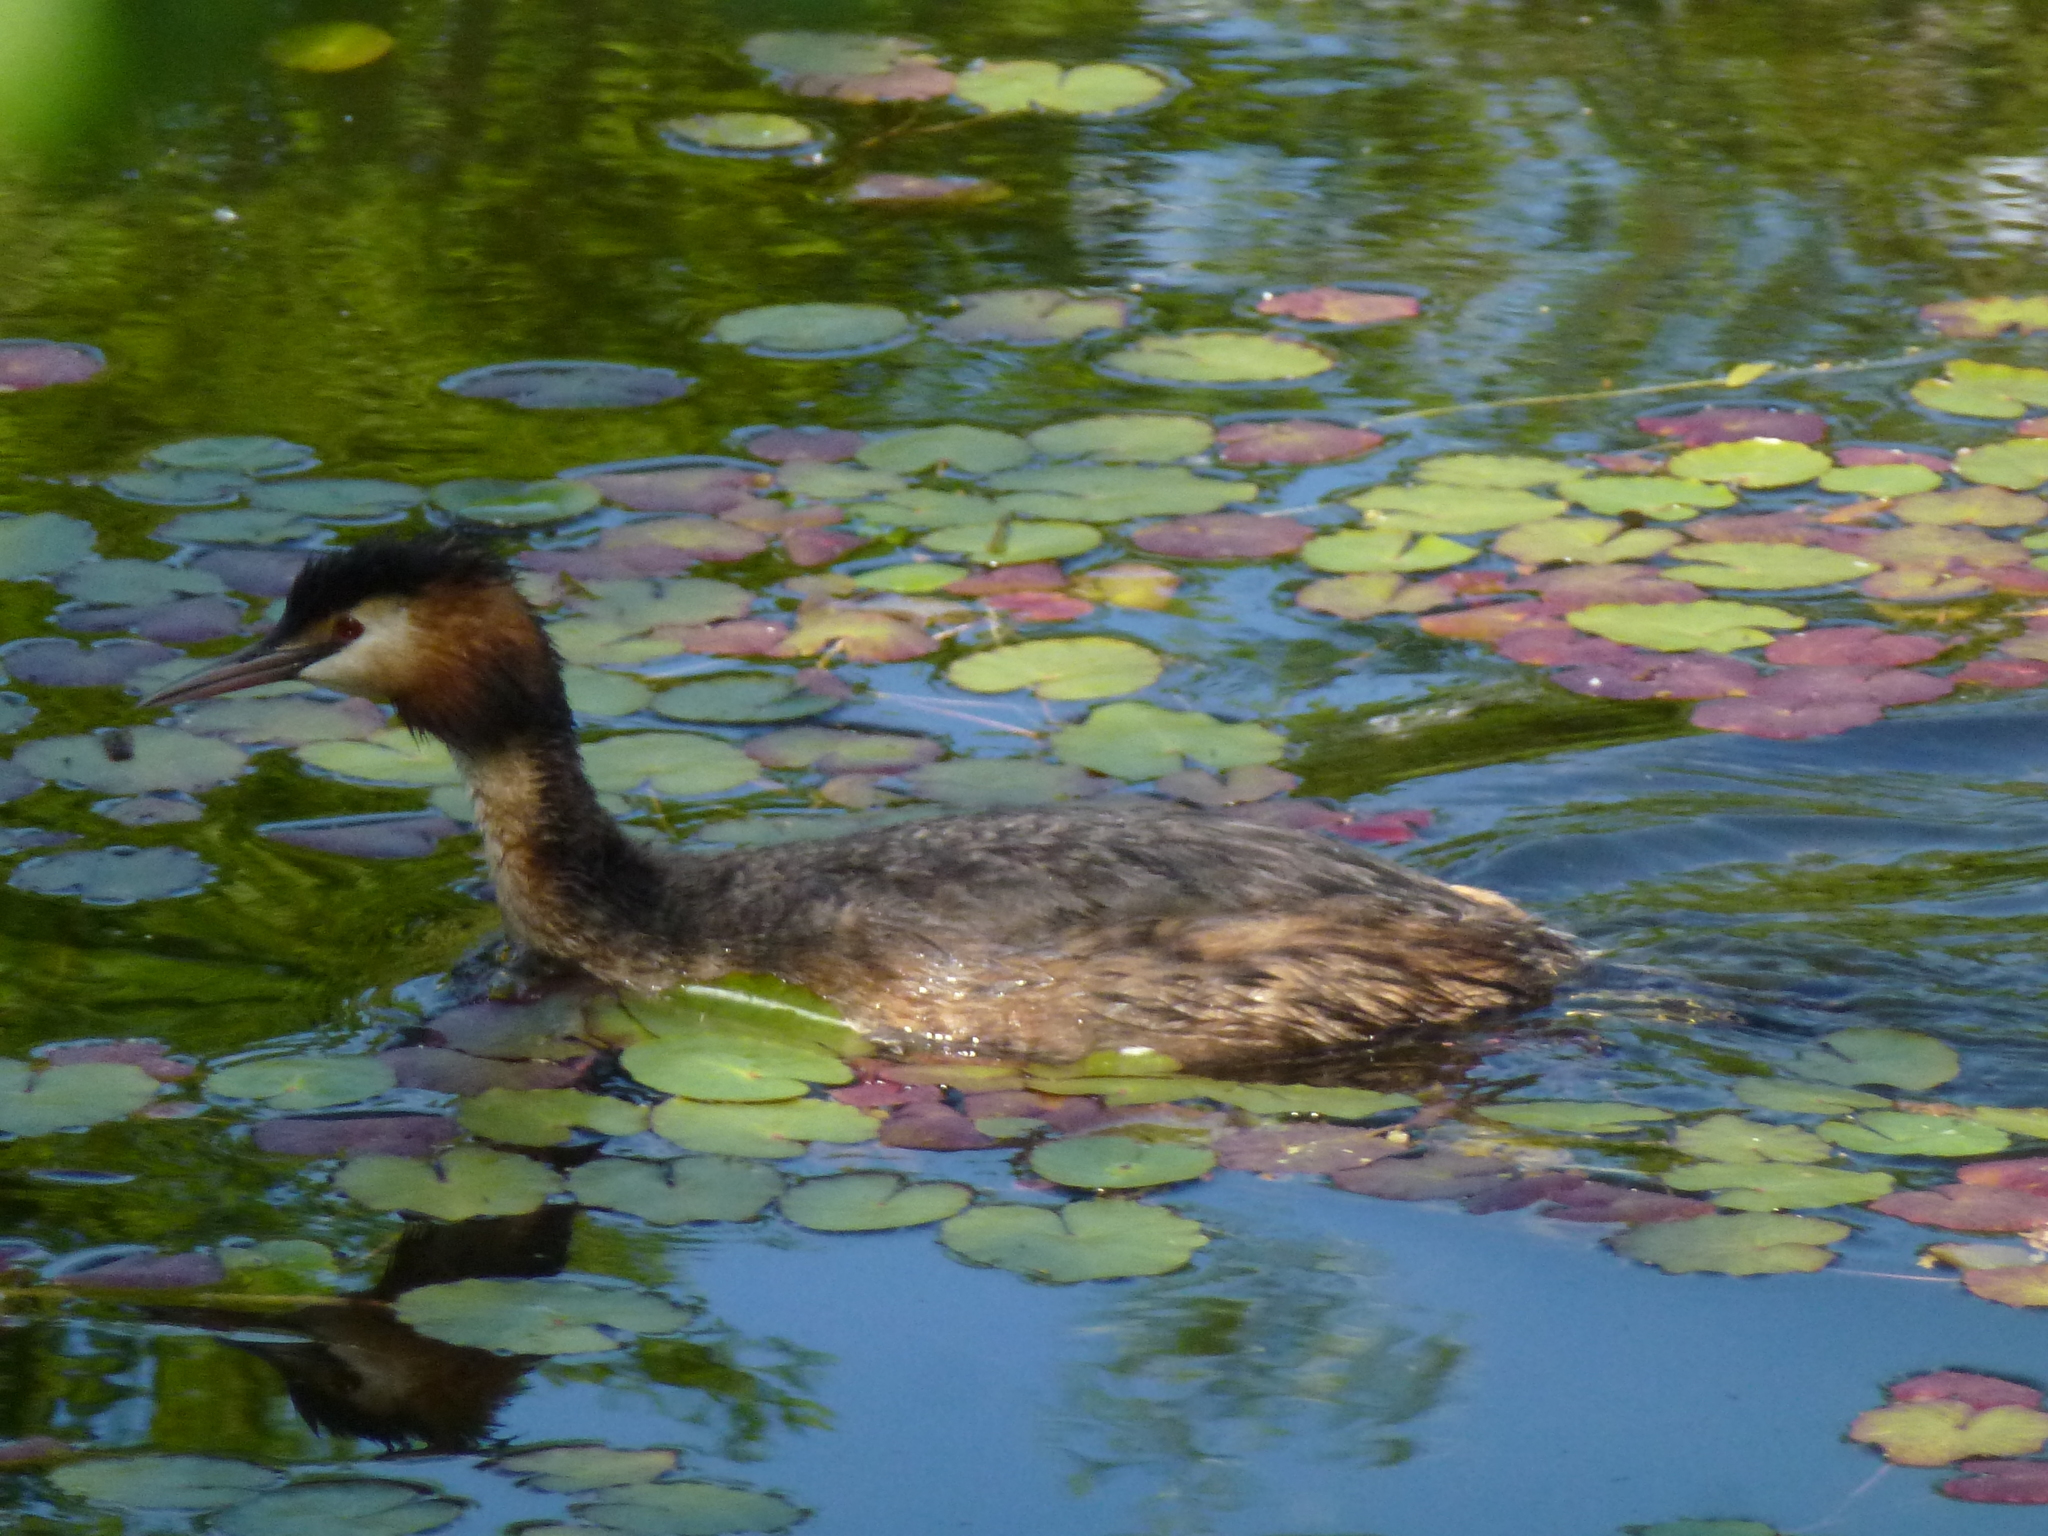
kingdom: Animalia
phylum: Chordata
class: Aves
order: Podicipediformes
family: Podicipedidae
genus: Podiceps
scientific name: Podiceps cristatus
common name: Great crested grebe
